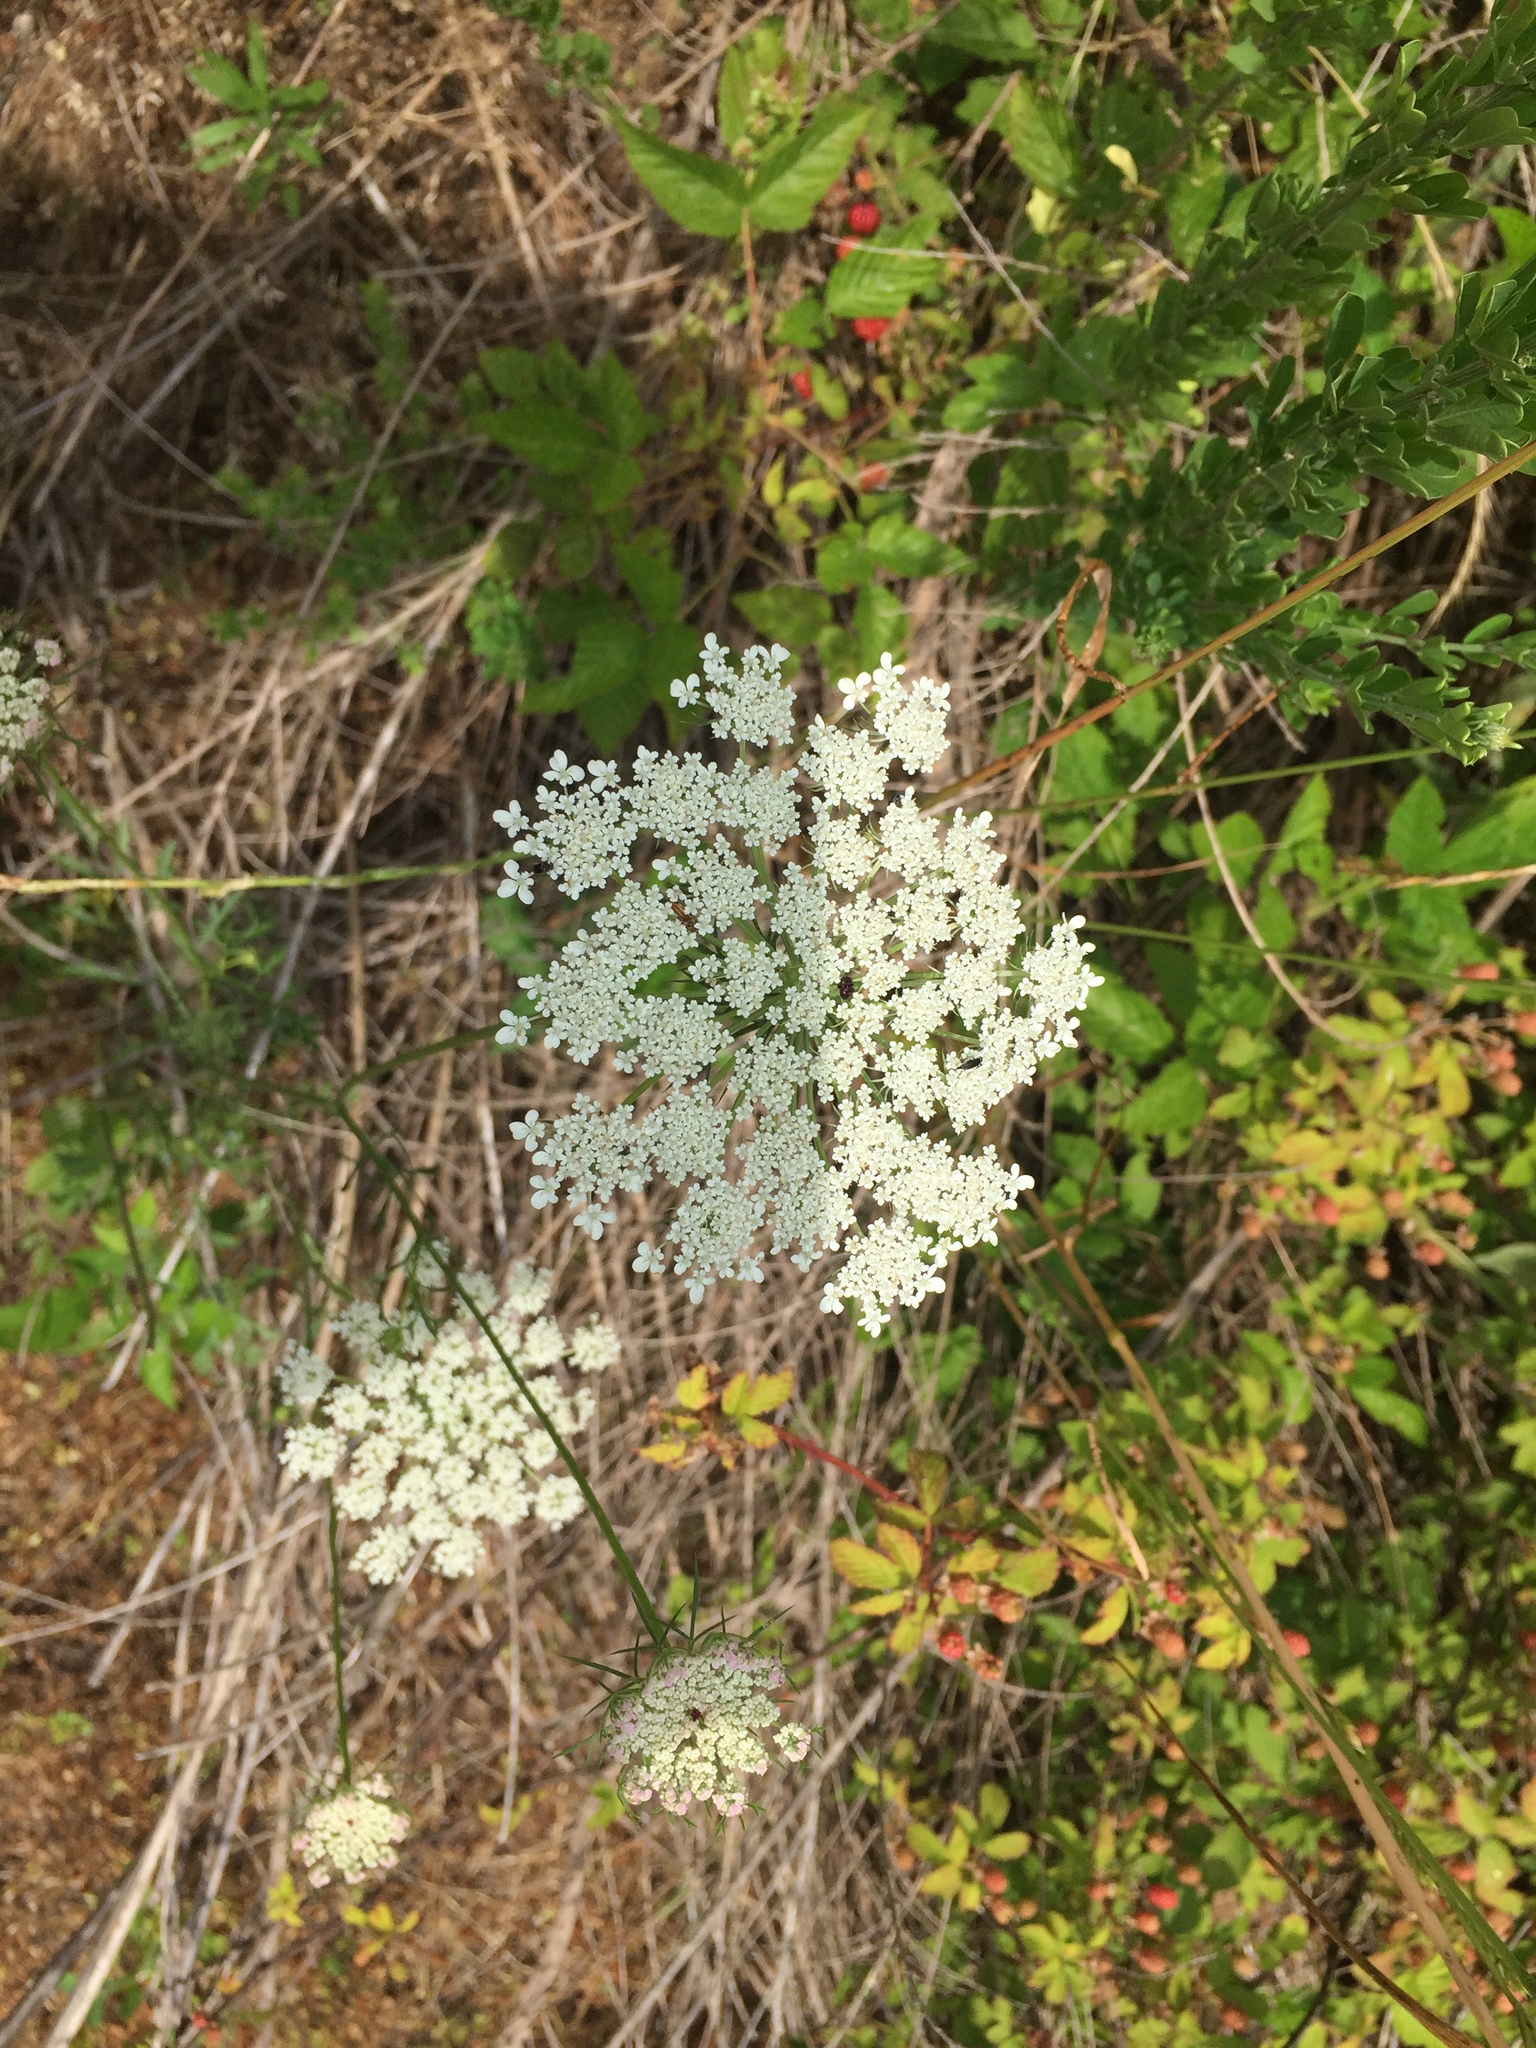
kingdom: Plantae
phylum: Tracheophyta
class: Magnoliopsida
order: Apiales
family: Apiaceae
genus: Daucus
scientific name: Daucus carota
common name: Wild carrot
